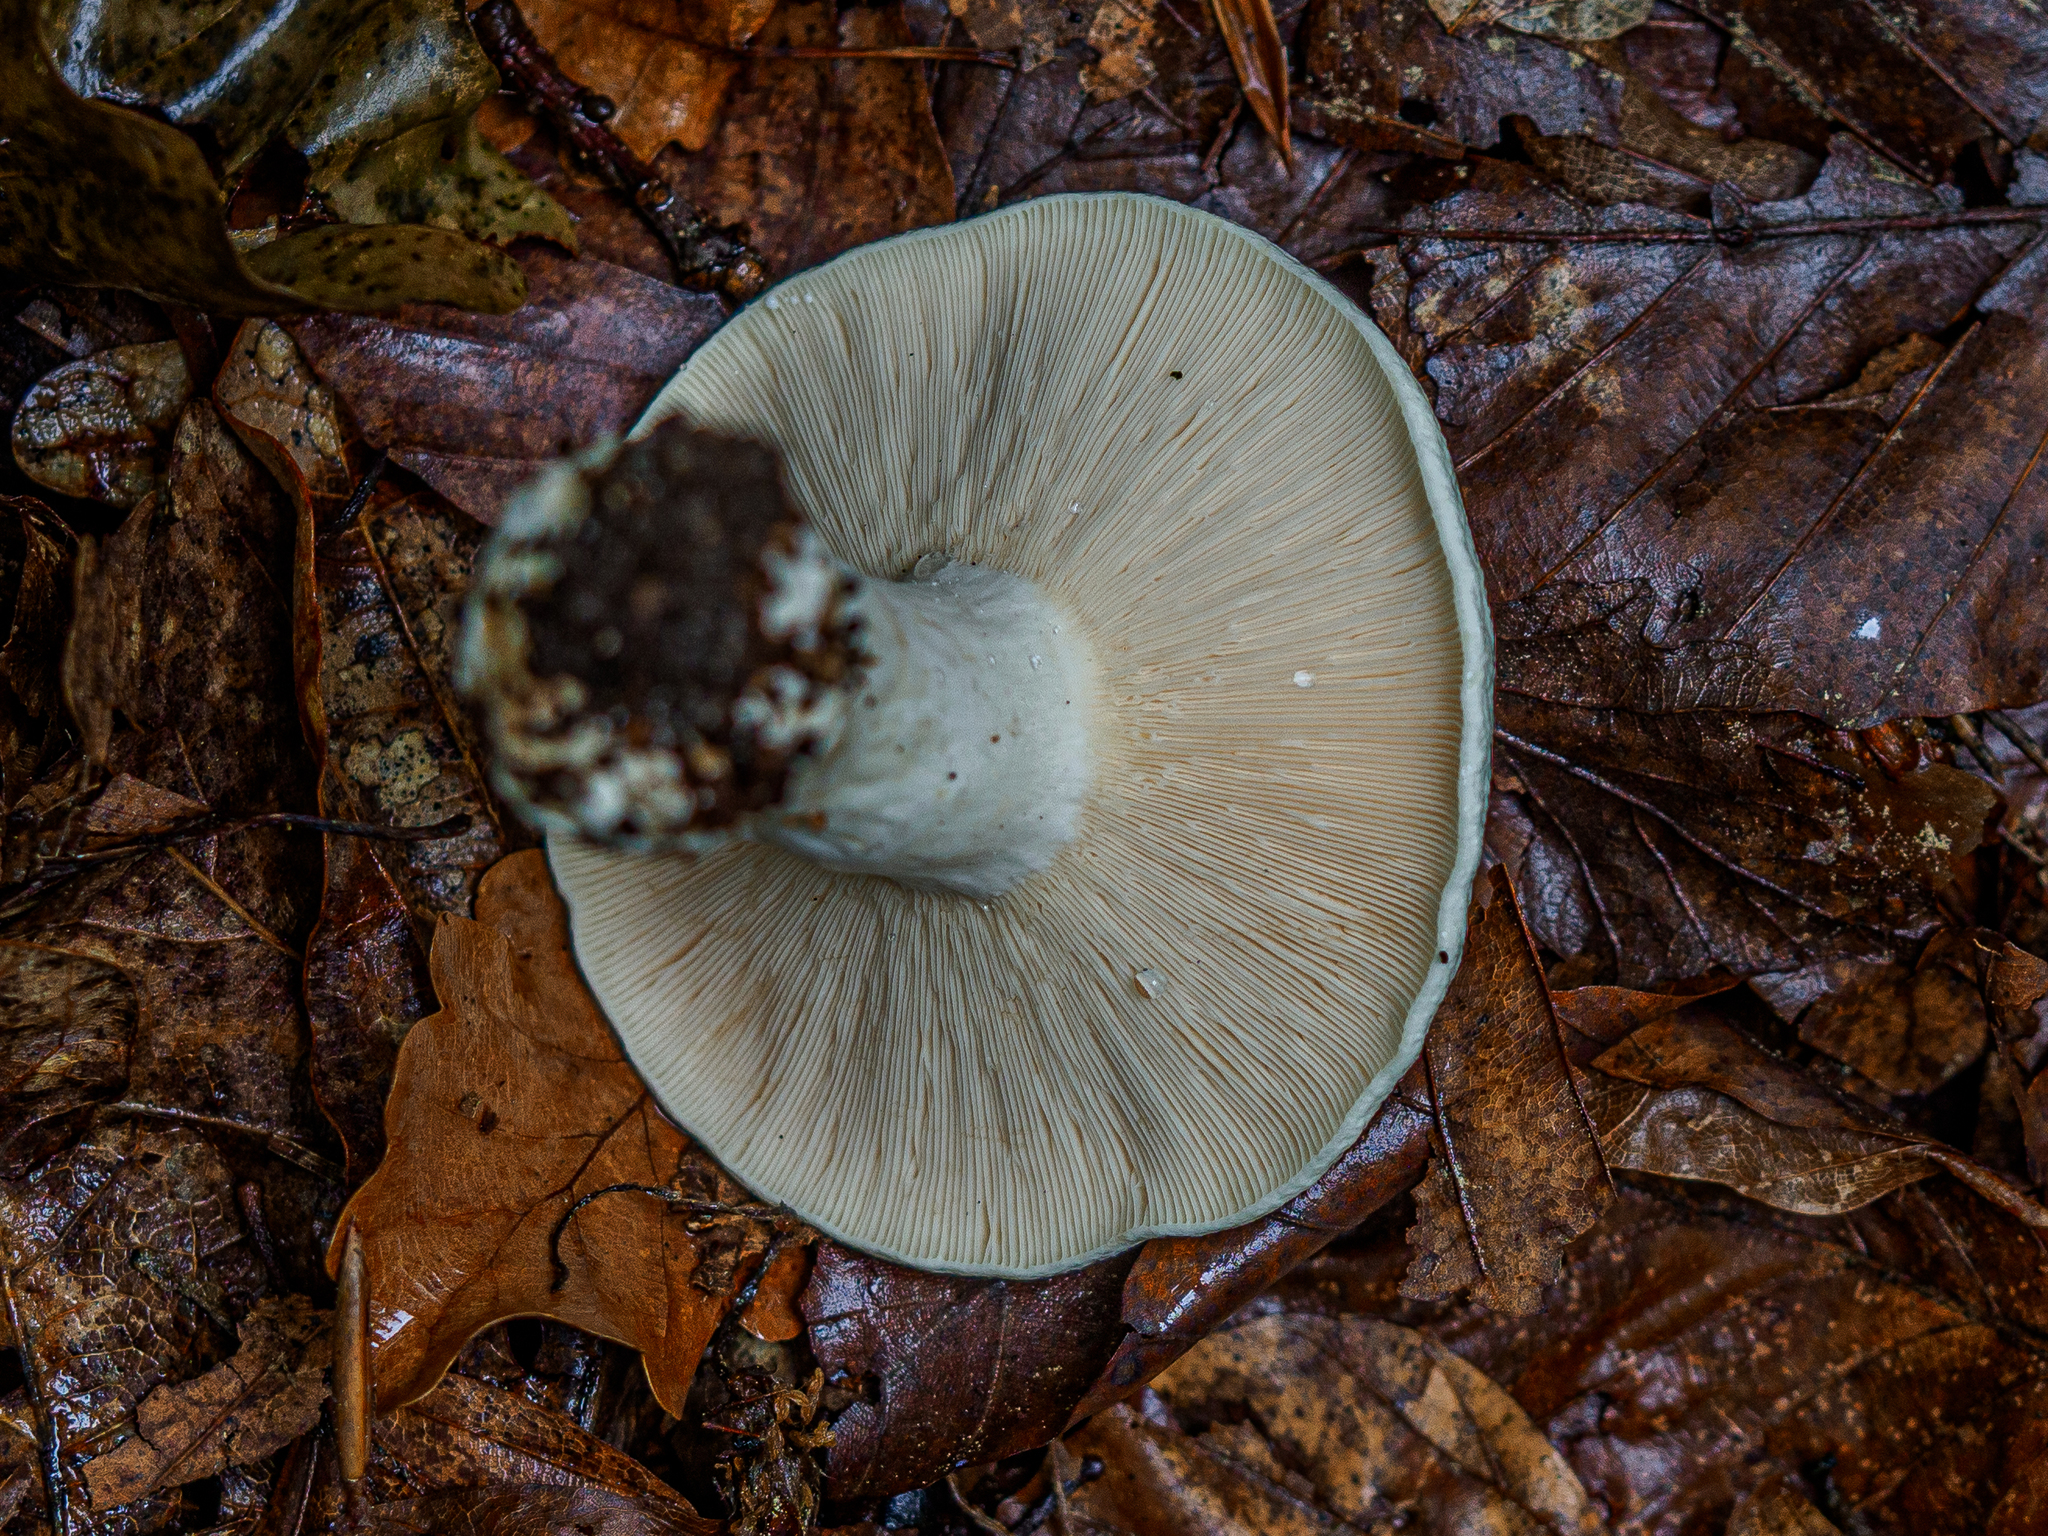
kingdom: Fungi
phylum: Basidiomycota
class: Agaricomycetes
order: Russulales
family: Russulaceae
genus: Lactifluus
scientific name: Lactifluus piperatus
